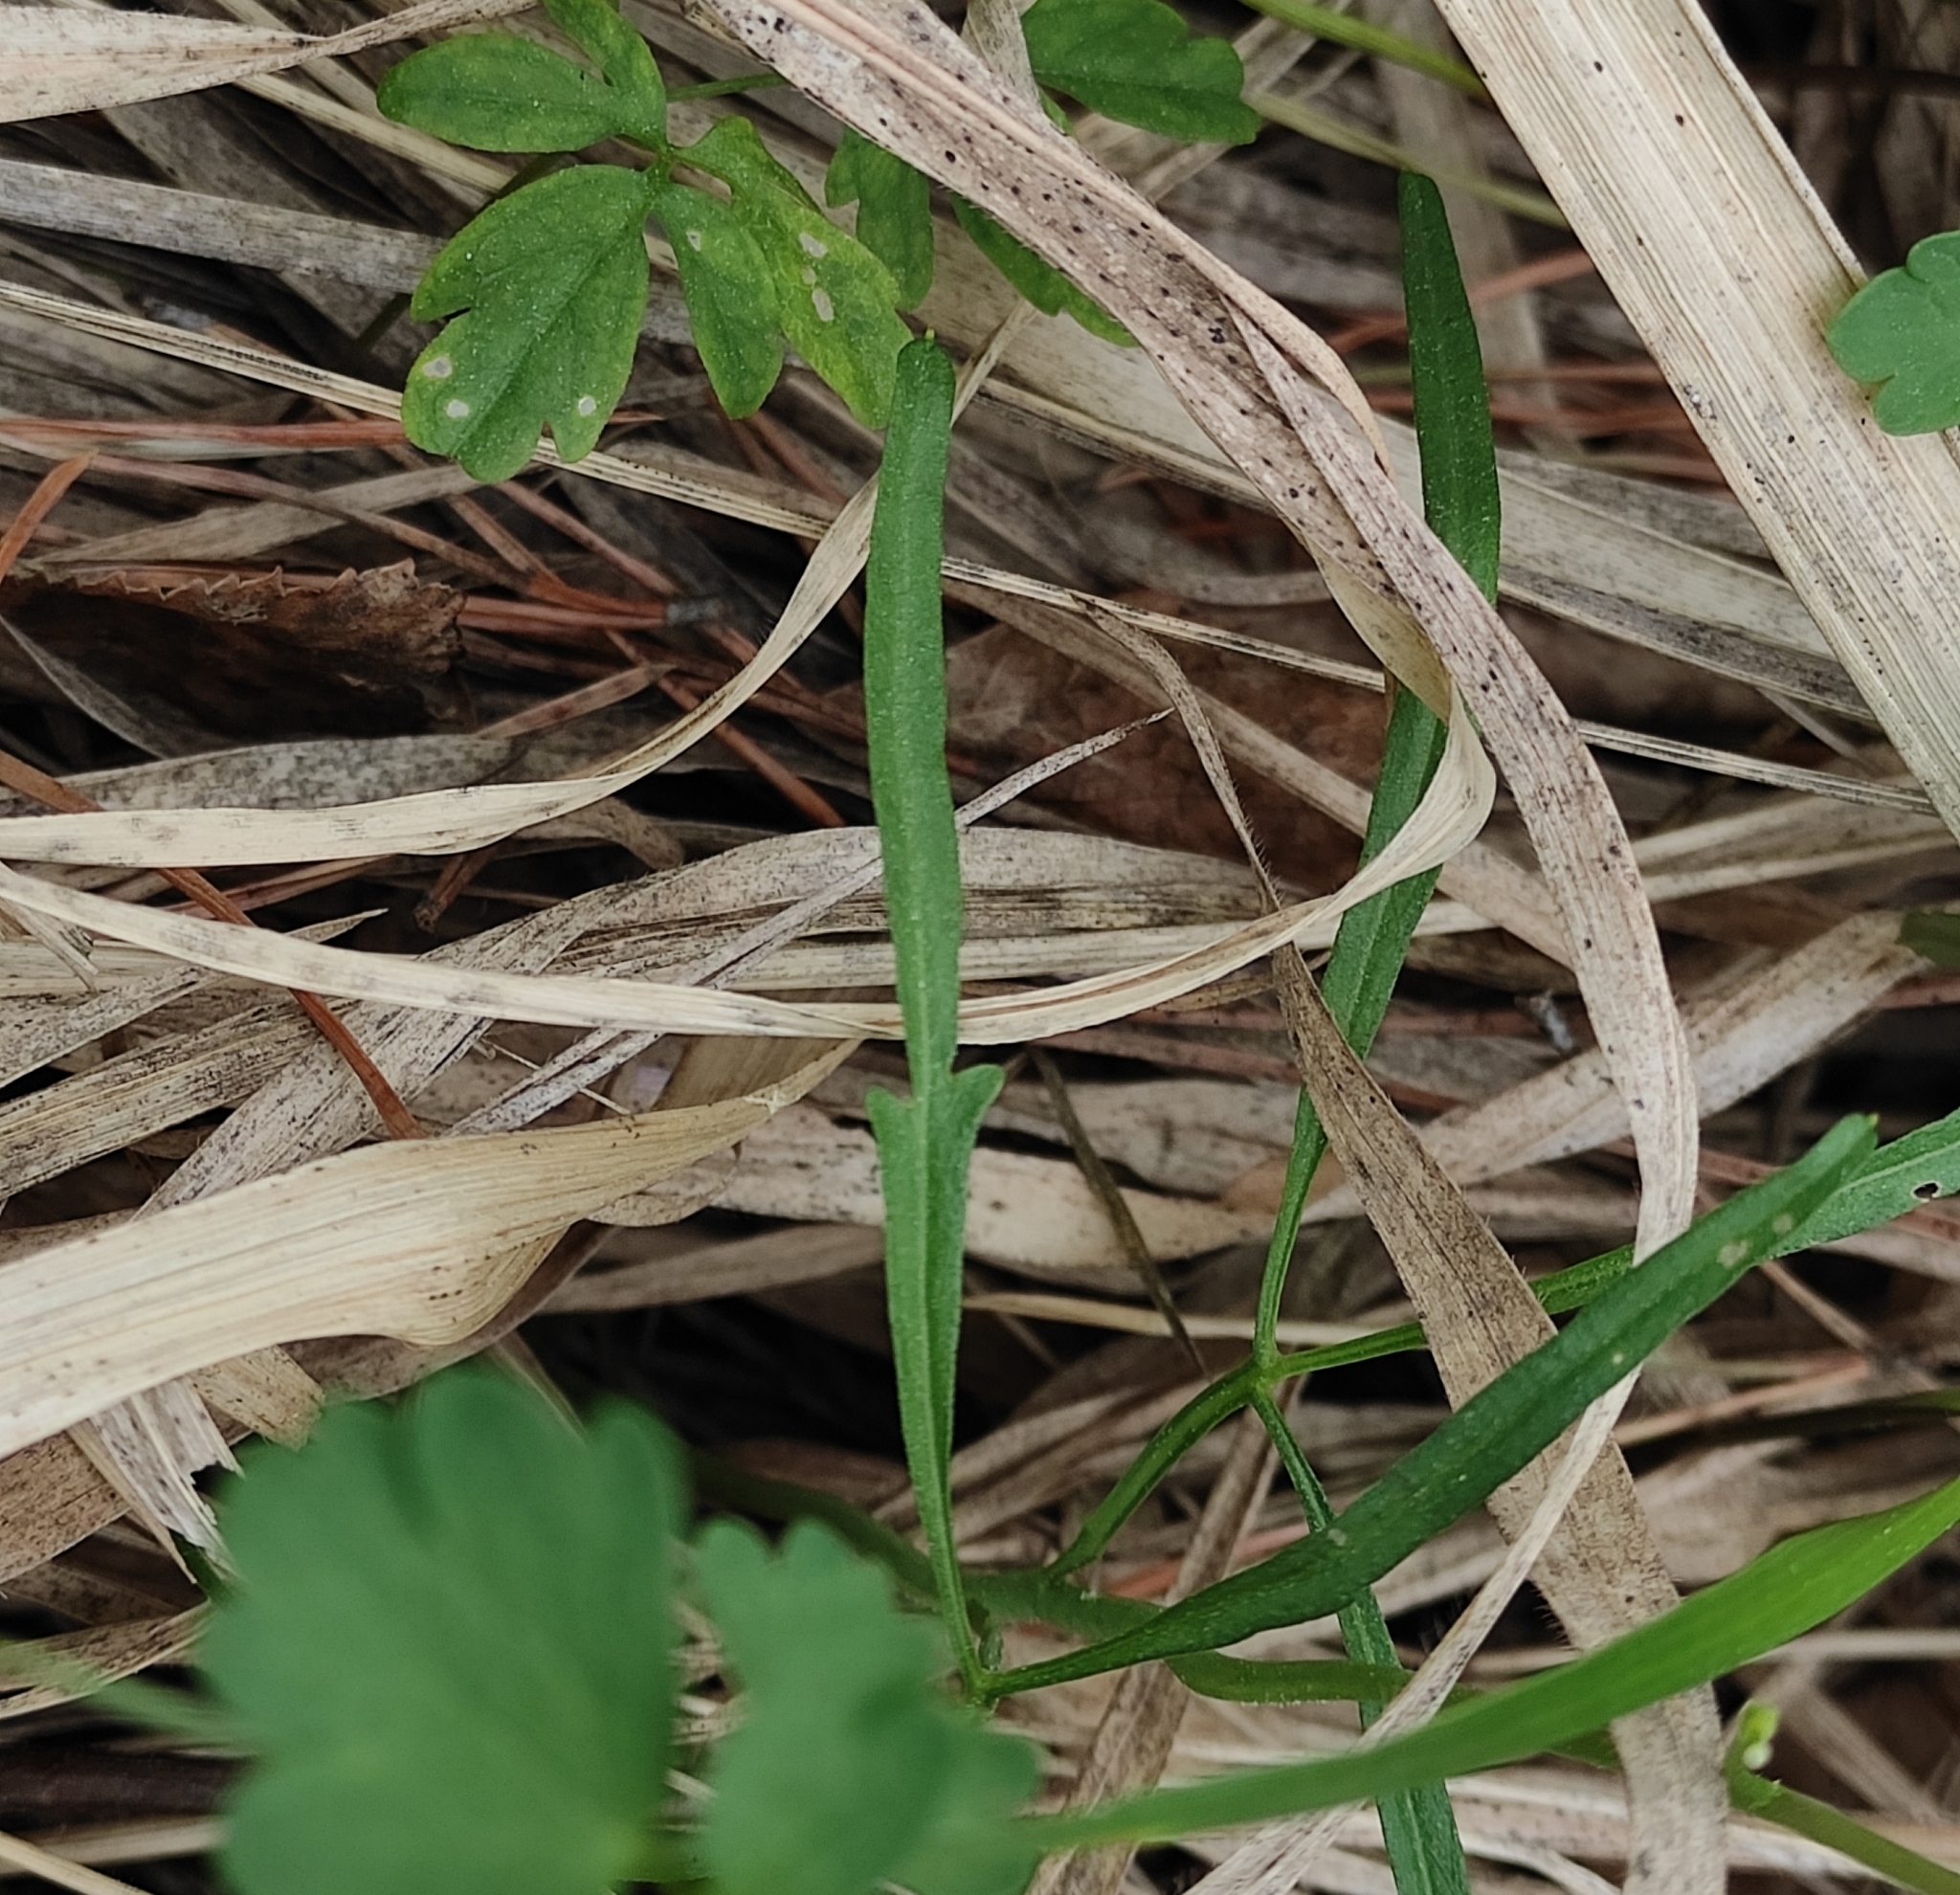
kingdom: Plantae
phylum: Tracheophyta
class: Magnoliopsida
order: Brassicales
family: Brassicaceae
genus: Cardamine
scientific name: Cardamine trifida
